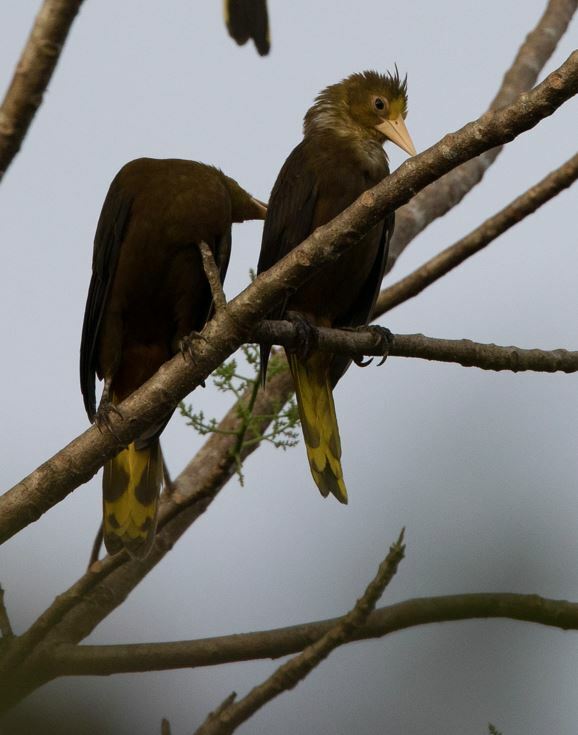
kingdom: Animalia
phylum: Chordata
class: Aves
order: Passeriformes
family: Icteridae
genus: Psarocolius
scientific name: Psarocolius angustifrons
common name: Russet-backed oropendola
